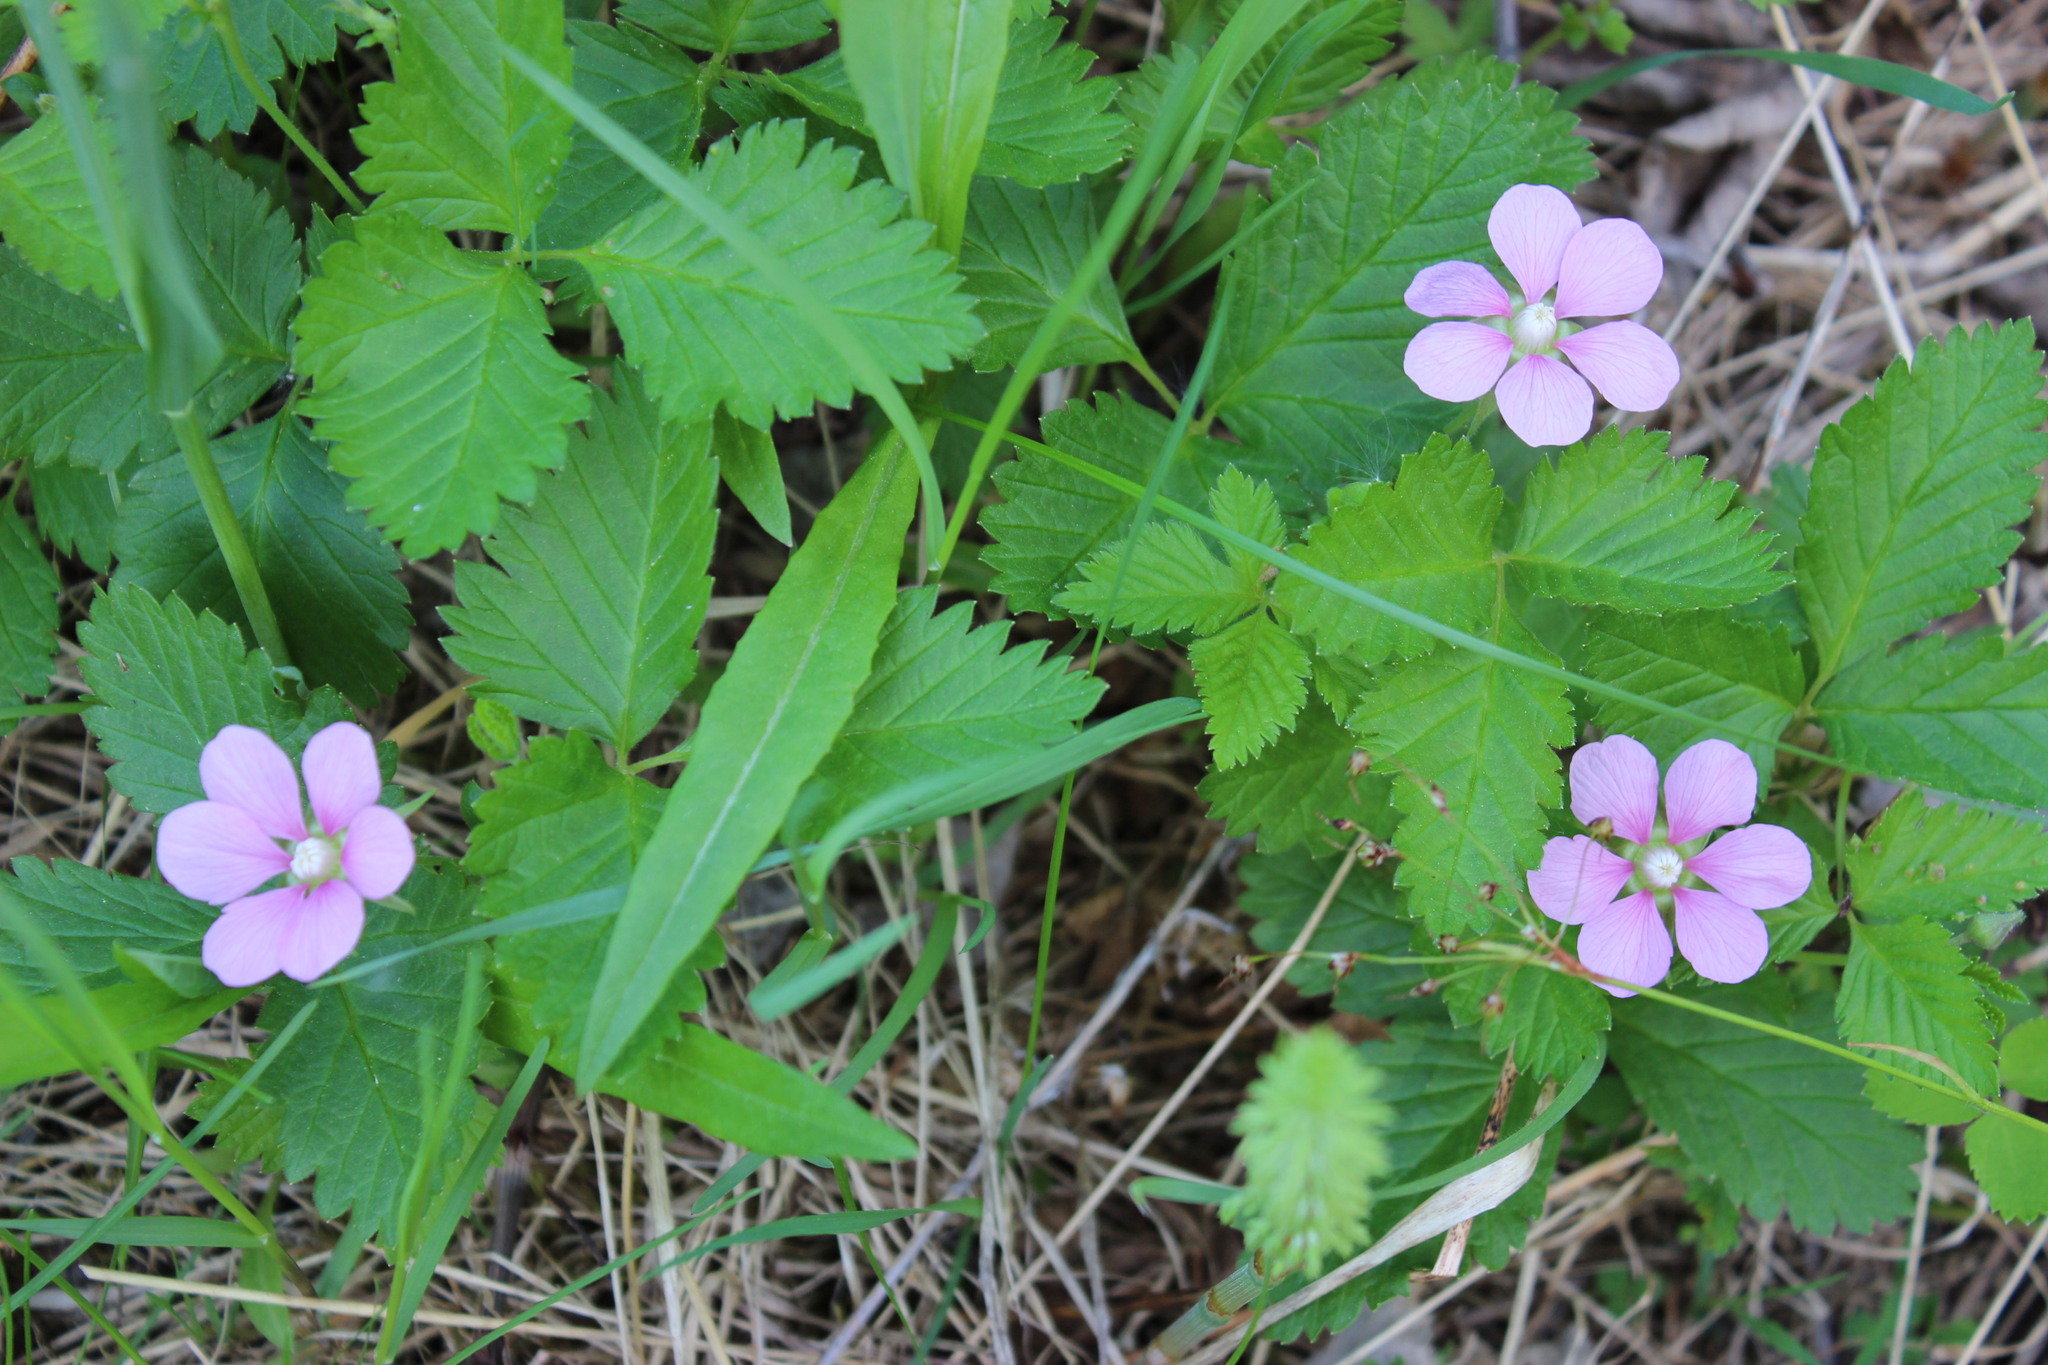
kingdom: Plantae
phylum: Tracheophyta
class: Magnoliopsida
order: Rosales
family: Rosaceae
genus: Rubus
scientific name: Rubus arcticus
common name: Arctic bramble
